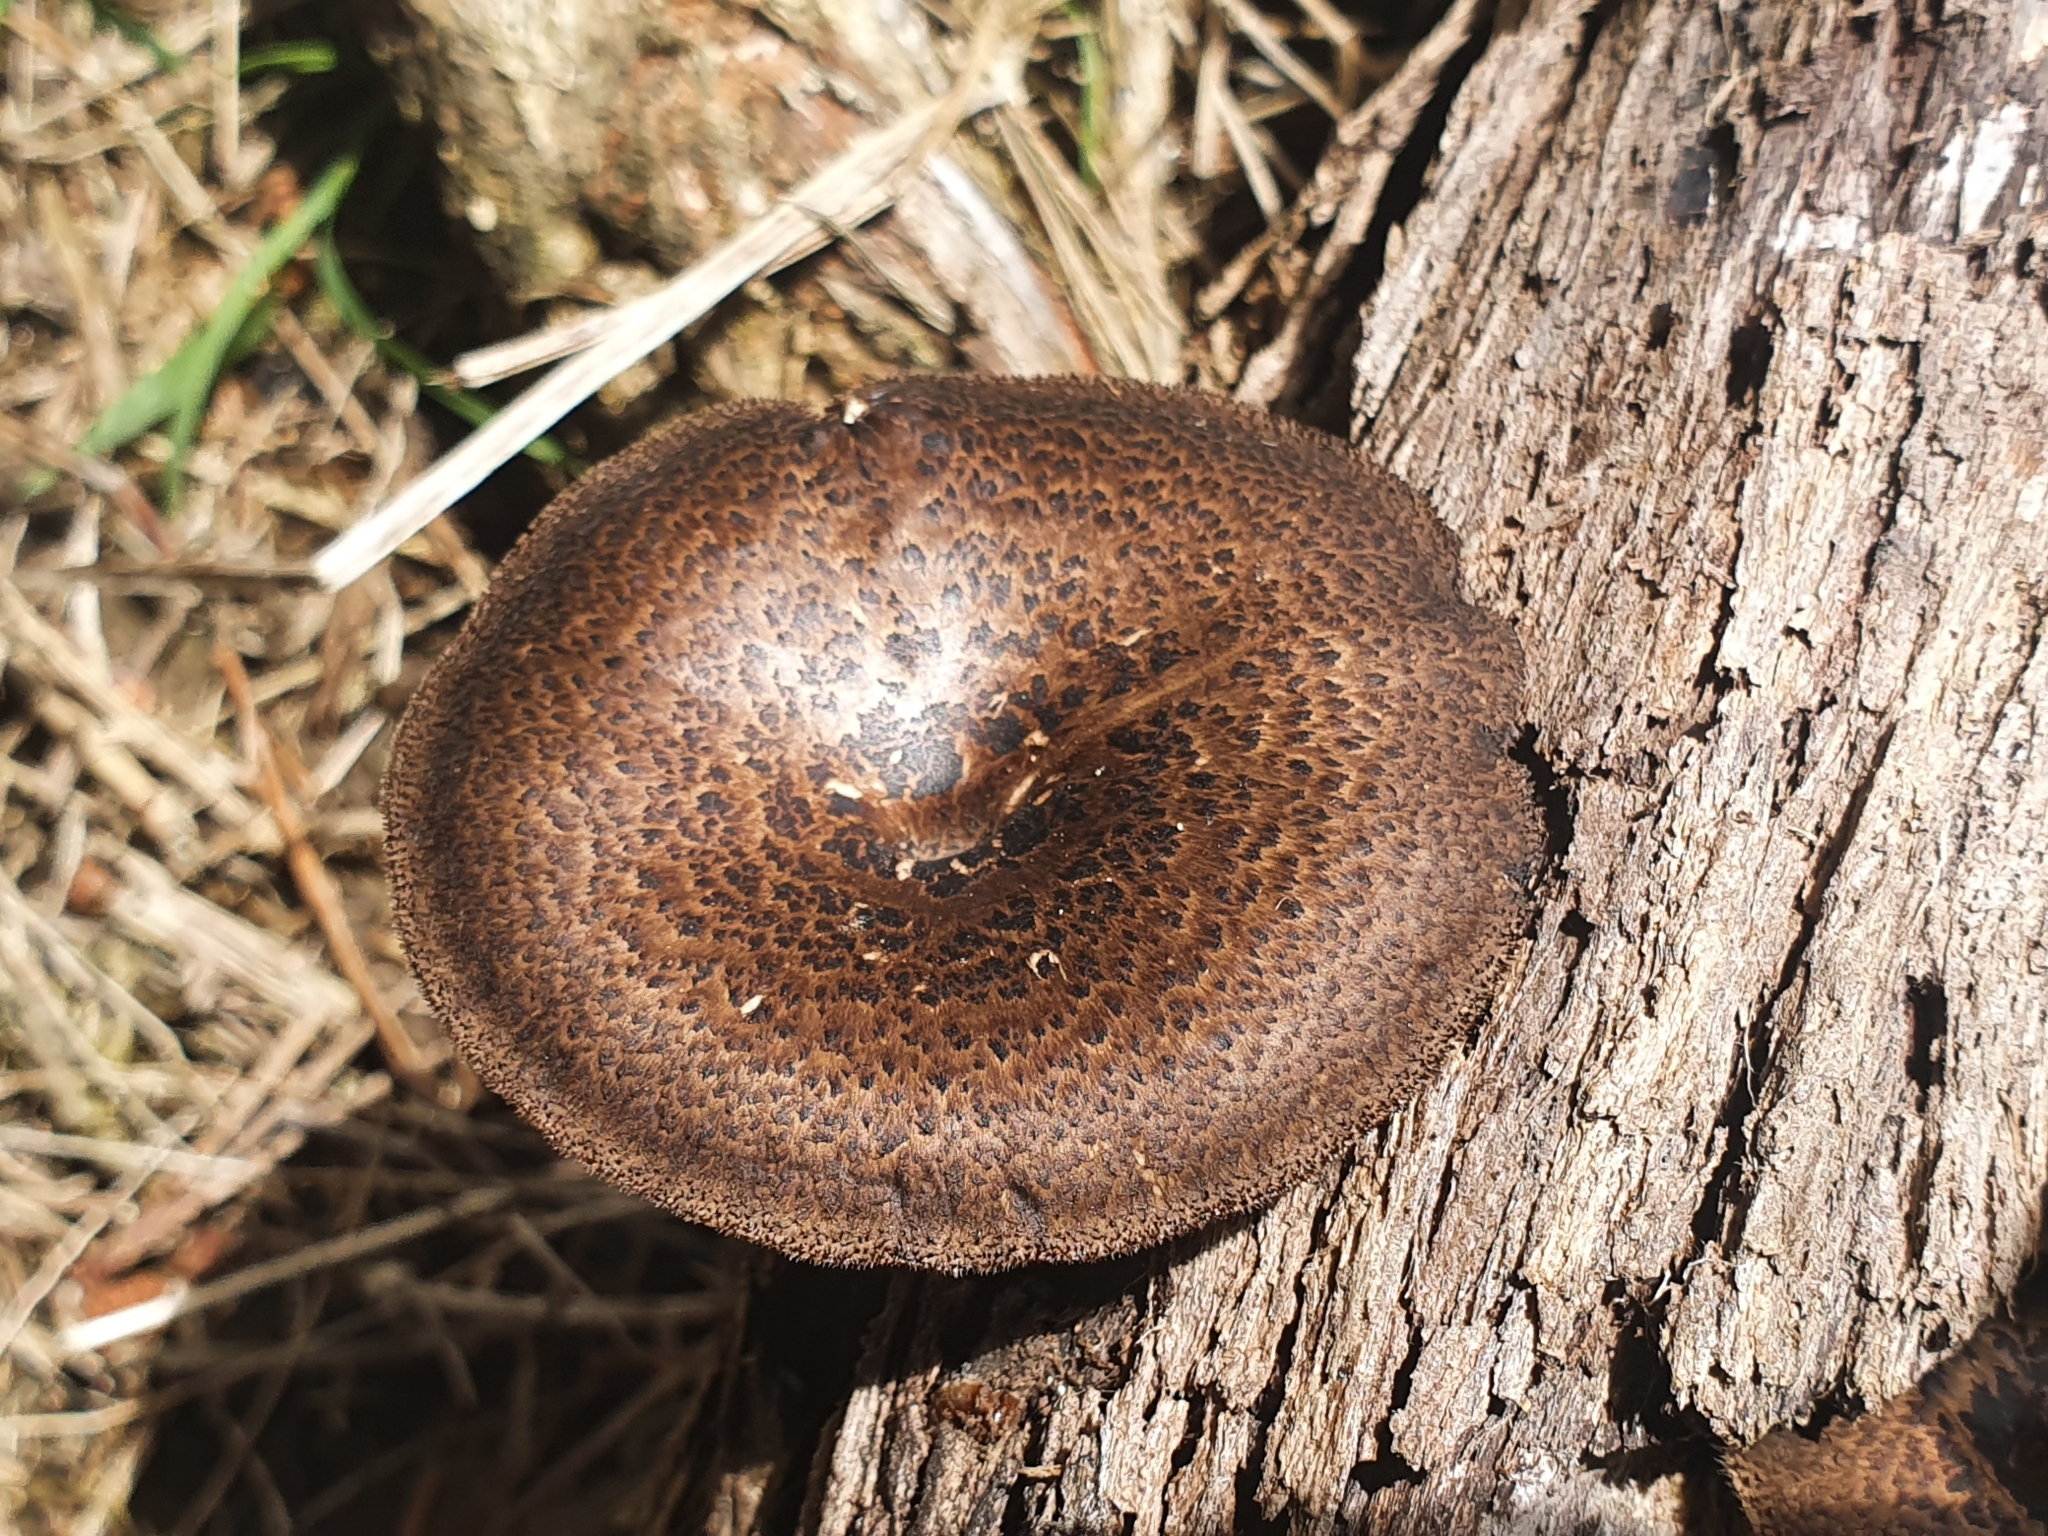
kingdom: Fungi
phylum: Basidiomycota
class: Agaricomycetes
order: Polyporales
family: Polyporaceae
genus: Lentinus
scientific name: Lentinus arcularius
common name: Spring polypore
